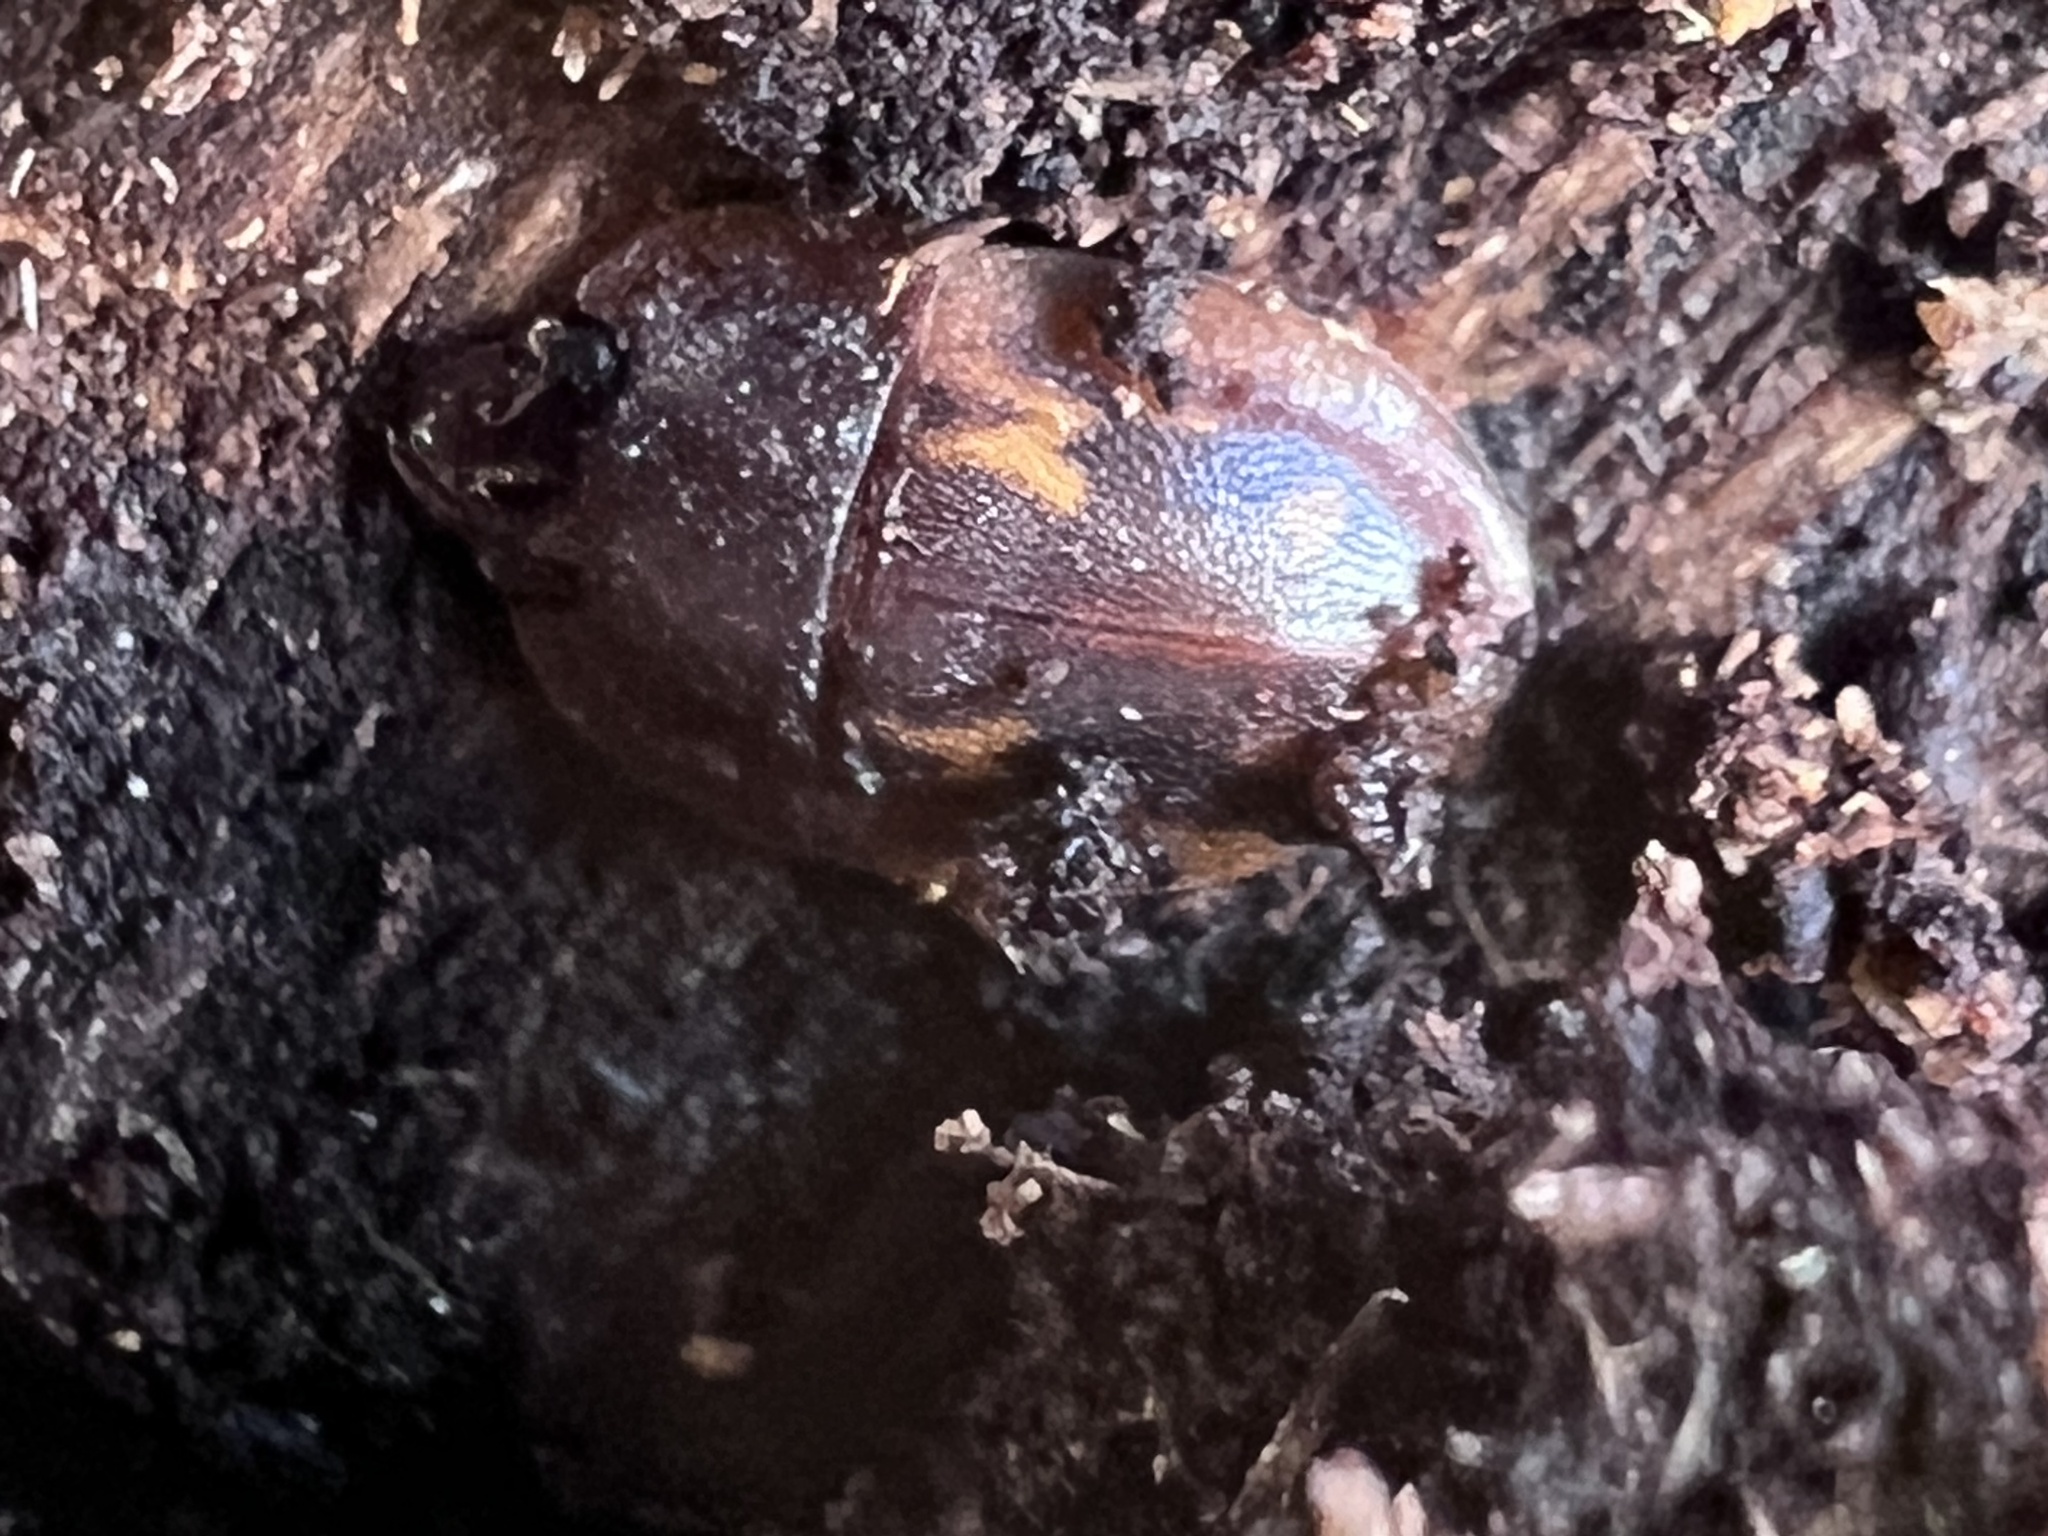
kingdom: Animalia
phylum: Arthropoda
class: Insecta
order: Coleoptera
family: Nitidulidae
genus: Prometopia
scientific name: Prometopia sexmaculata
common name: Six-spotted sap-feeding beetle
